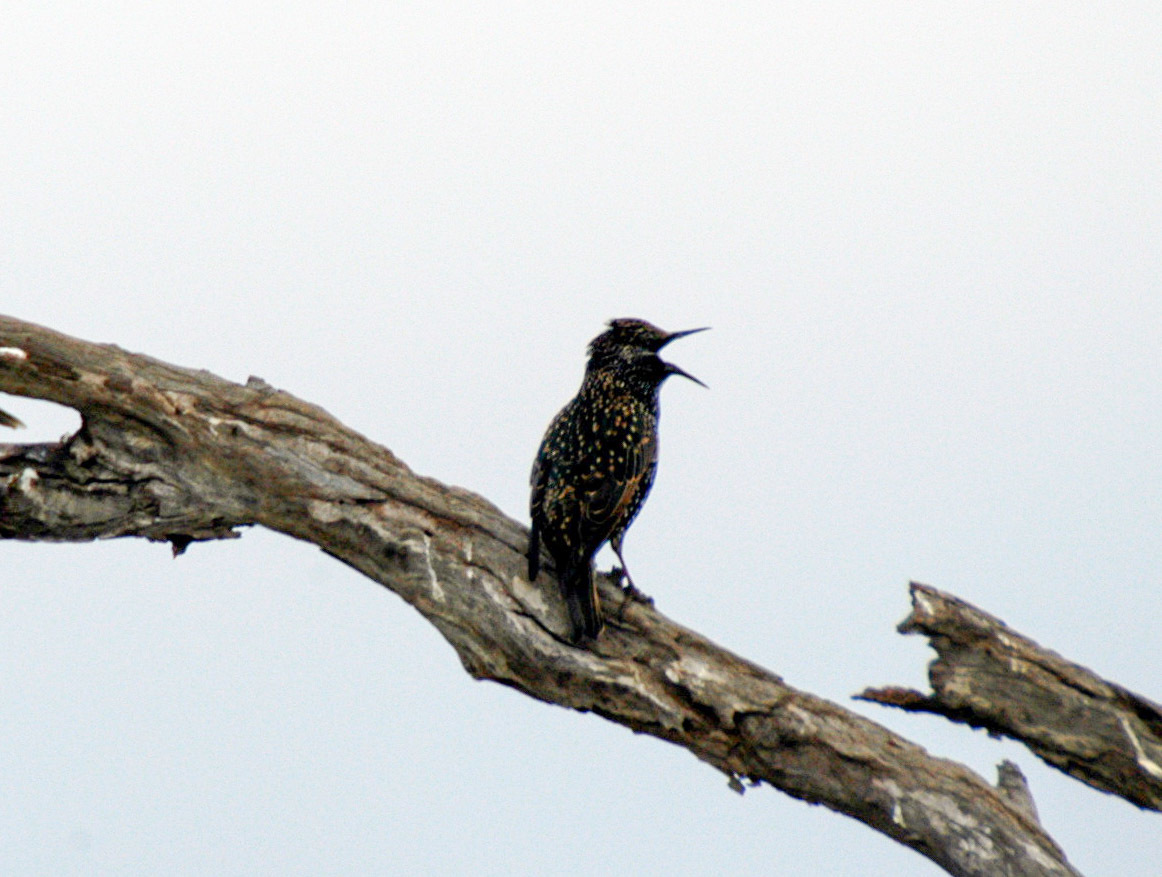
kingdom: Animalia
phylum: Chordata
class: Aves
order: Passeriformes
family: Sturnidae
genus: Sturnus
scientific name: Sturnus vulgaris
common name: Common starling
